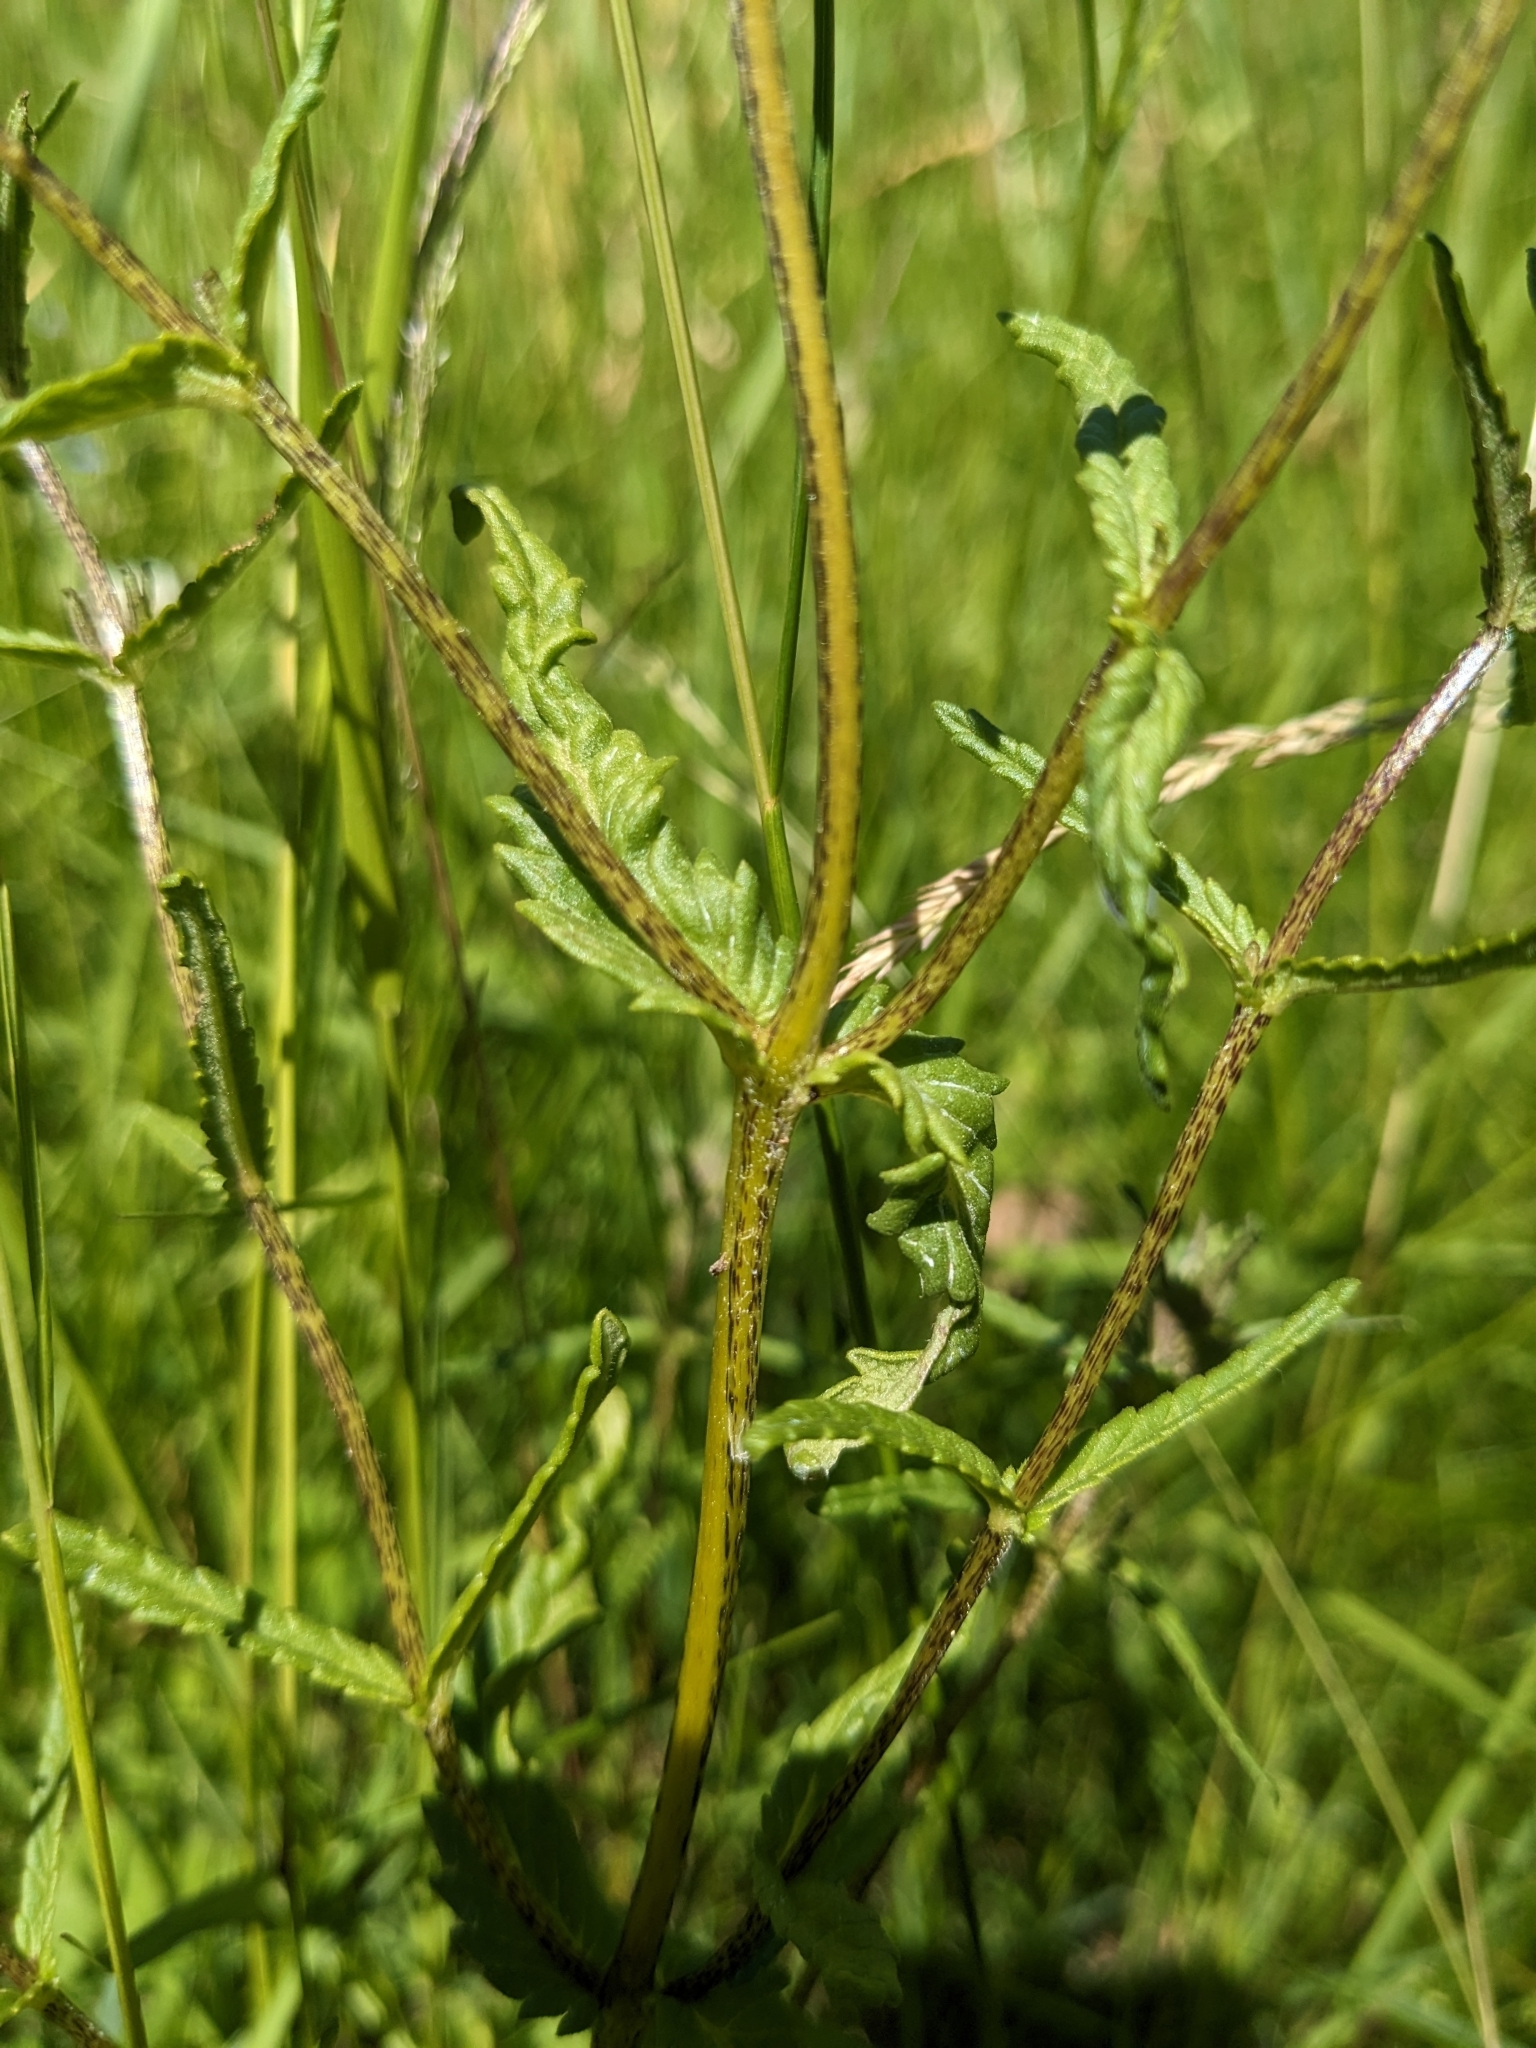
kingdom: Plantae
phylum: Tracheophyta
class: Magnoliopsida
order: Lamiales
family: Orobanchaceae
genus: Rhinanthus
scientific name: Rhinanthus minor
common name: Yellow-rattle
